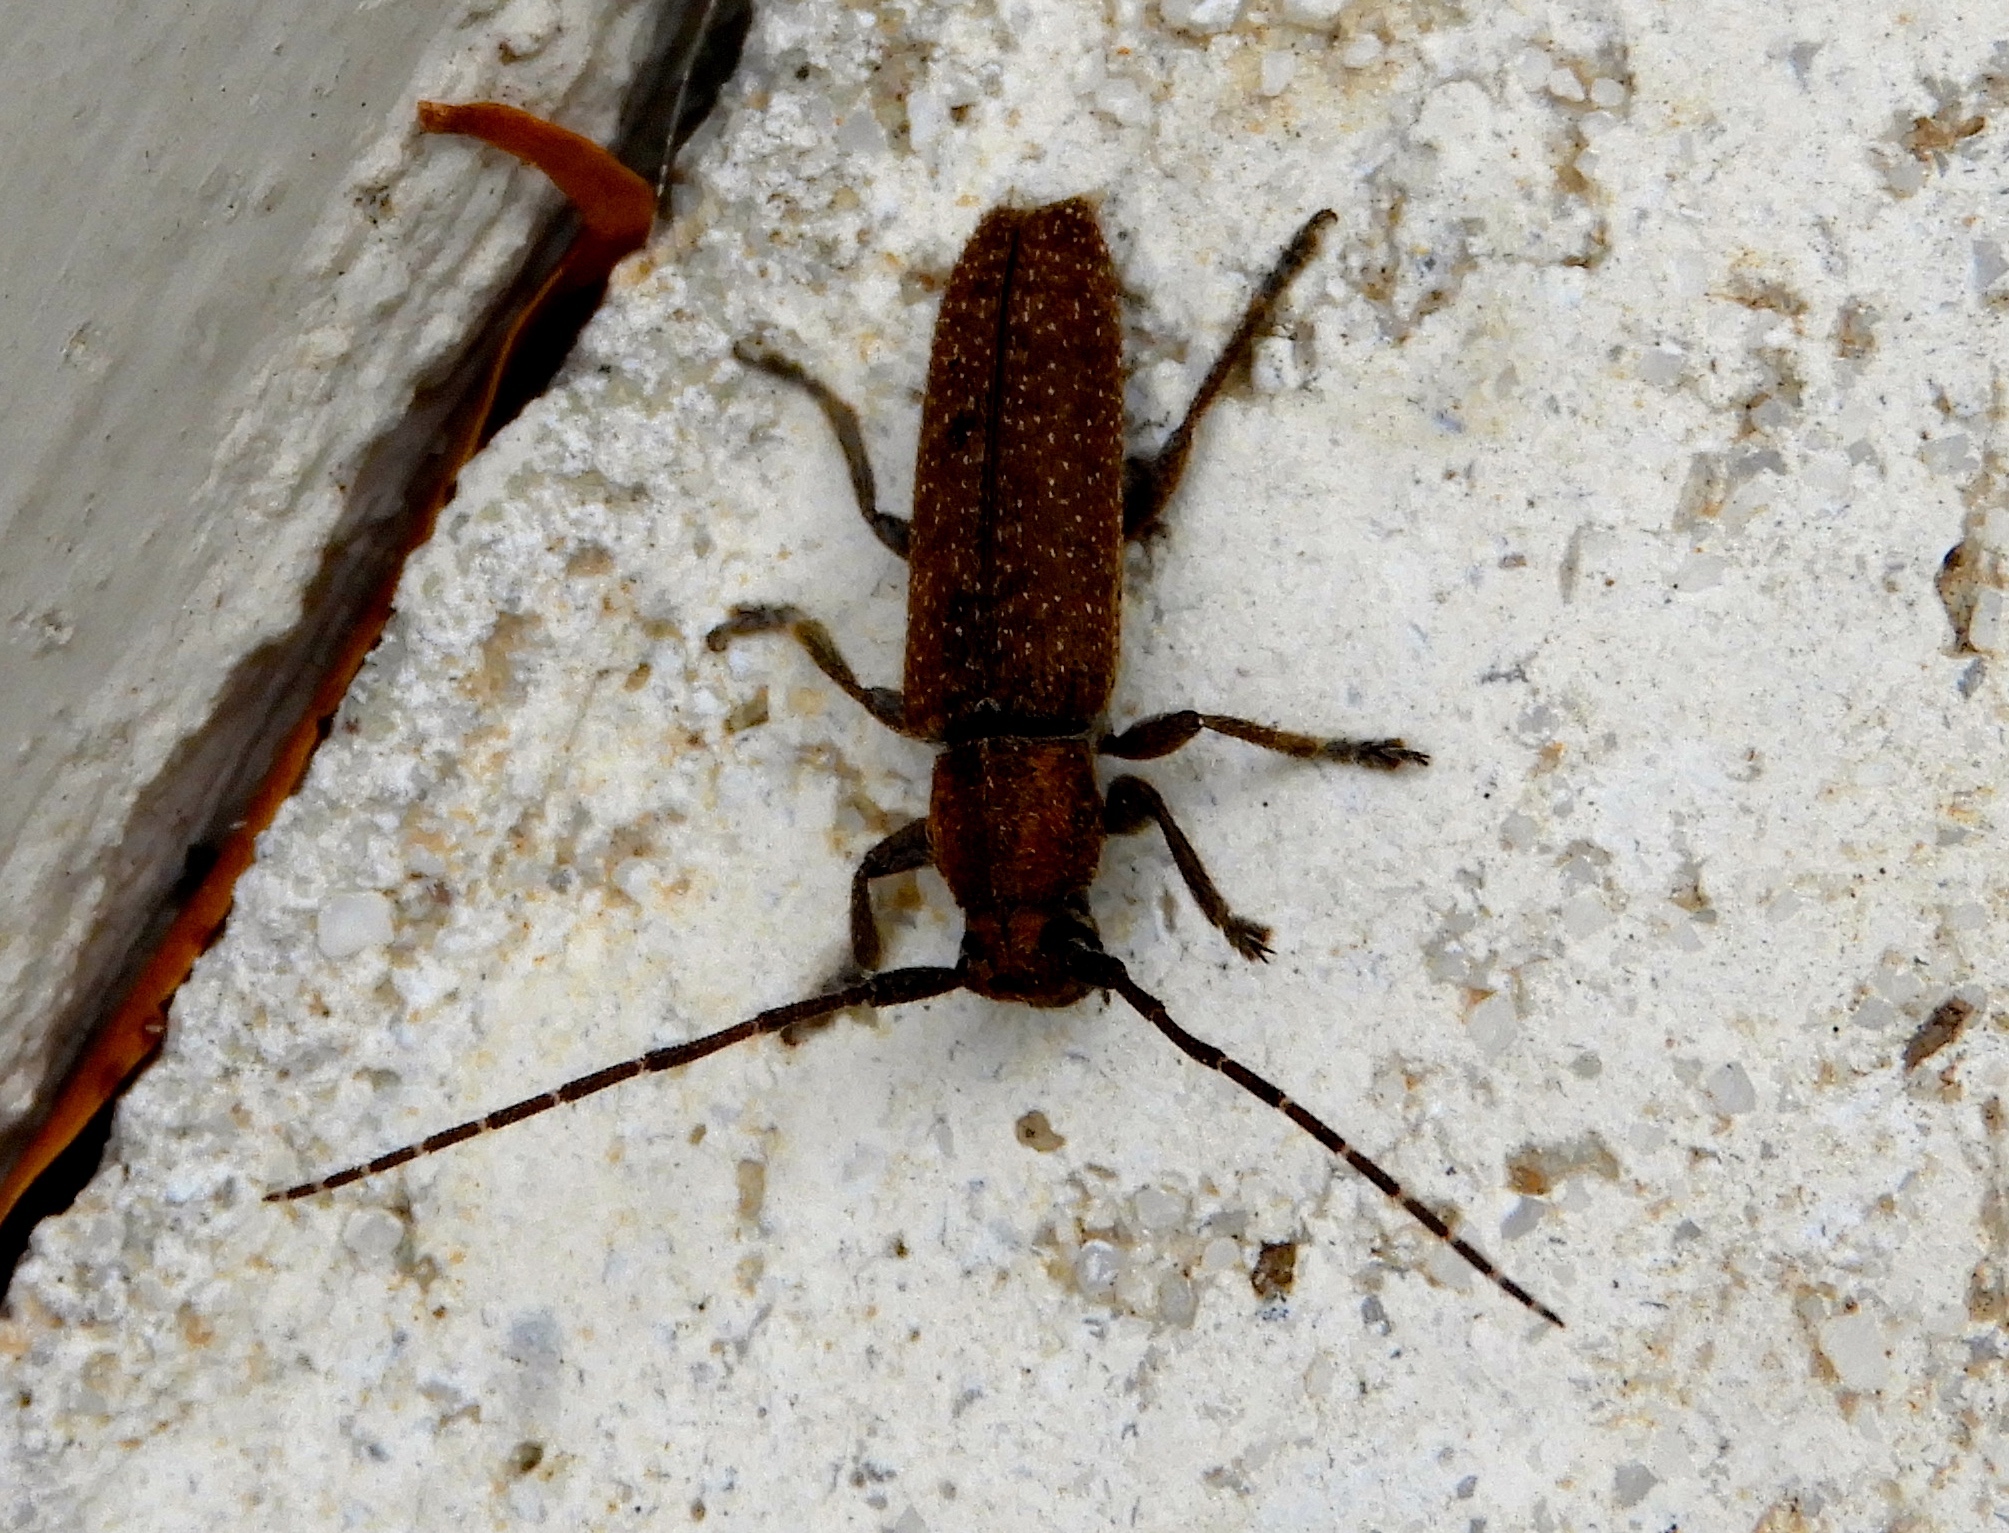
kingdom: Animalia
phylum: Arthropoda
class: Insecta
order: Coleoptera
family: Cerambycidae
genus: Ataxia
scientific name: Ataxia
